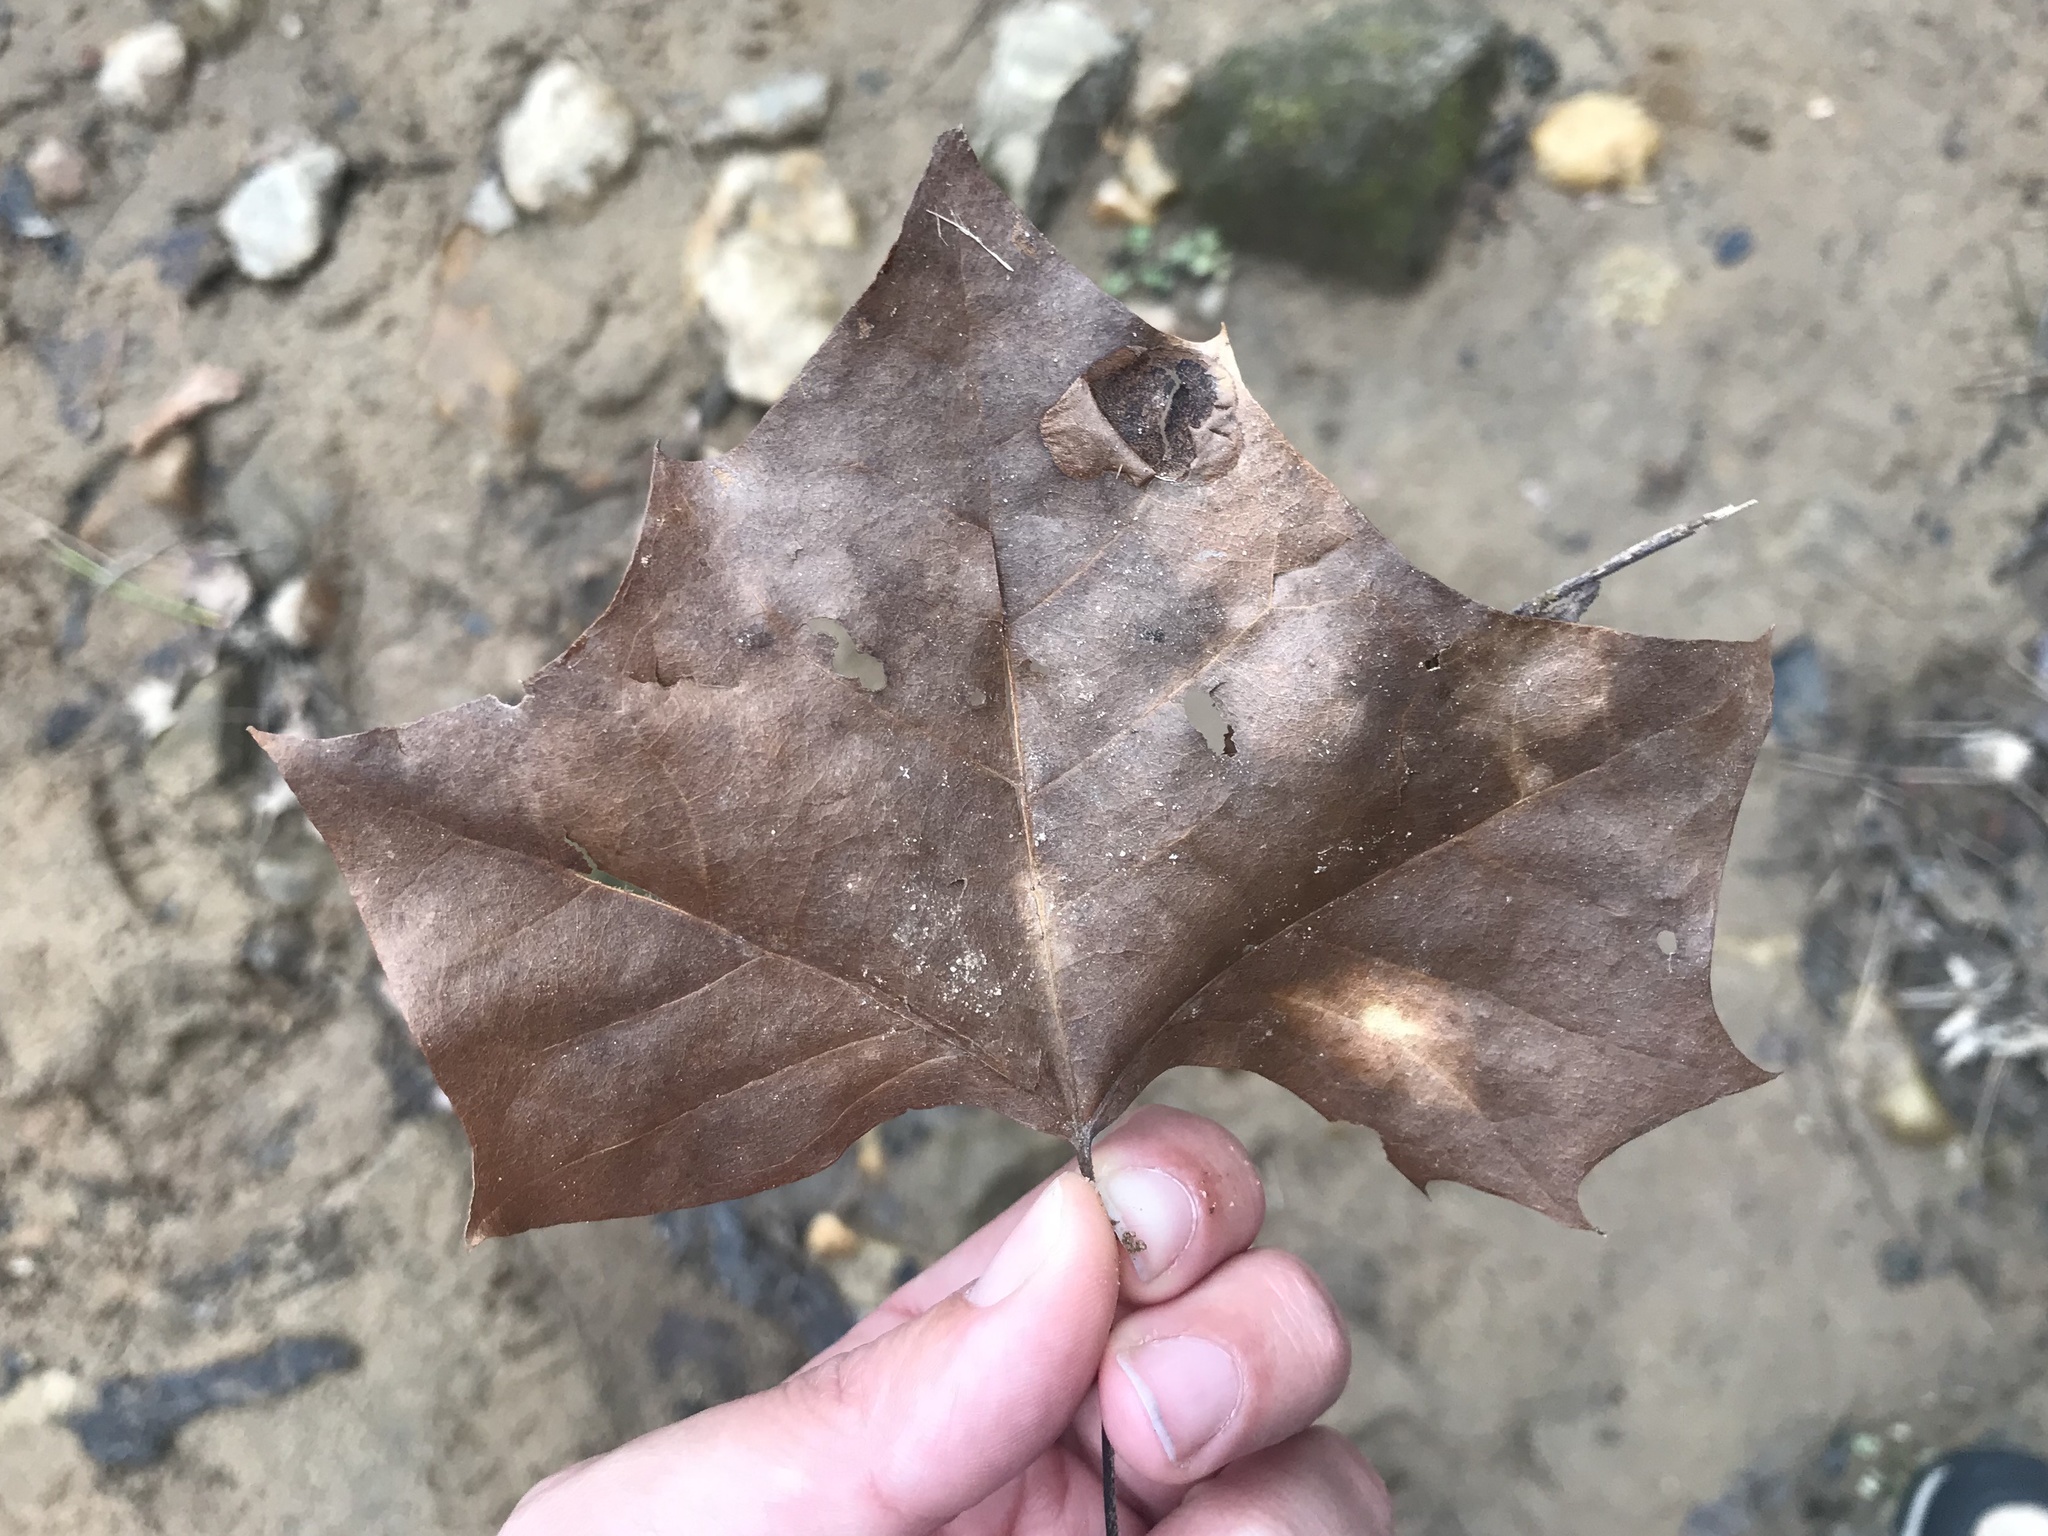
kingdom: Plantae
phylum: Tracheophyta
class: Magnoliopsida
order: Proteales
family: Platanaceae
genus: Platanus
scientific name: Platanus occidentalis
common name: American sycamore
